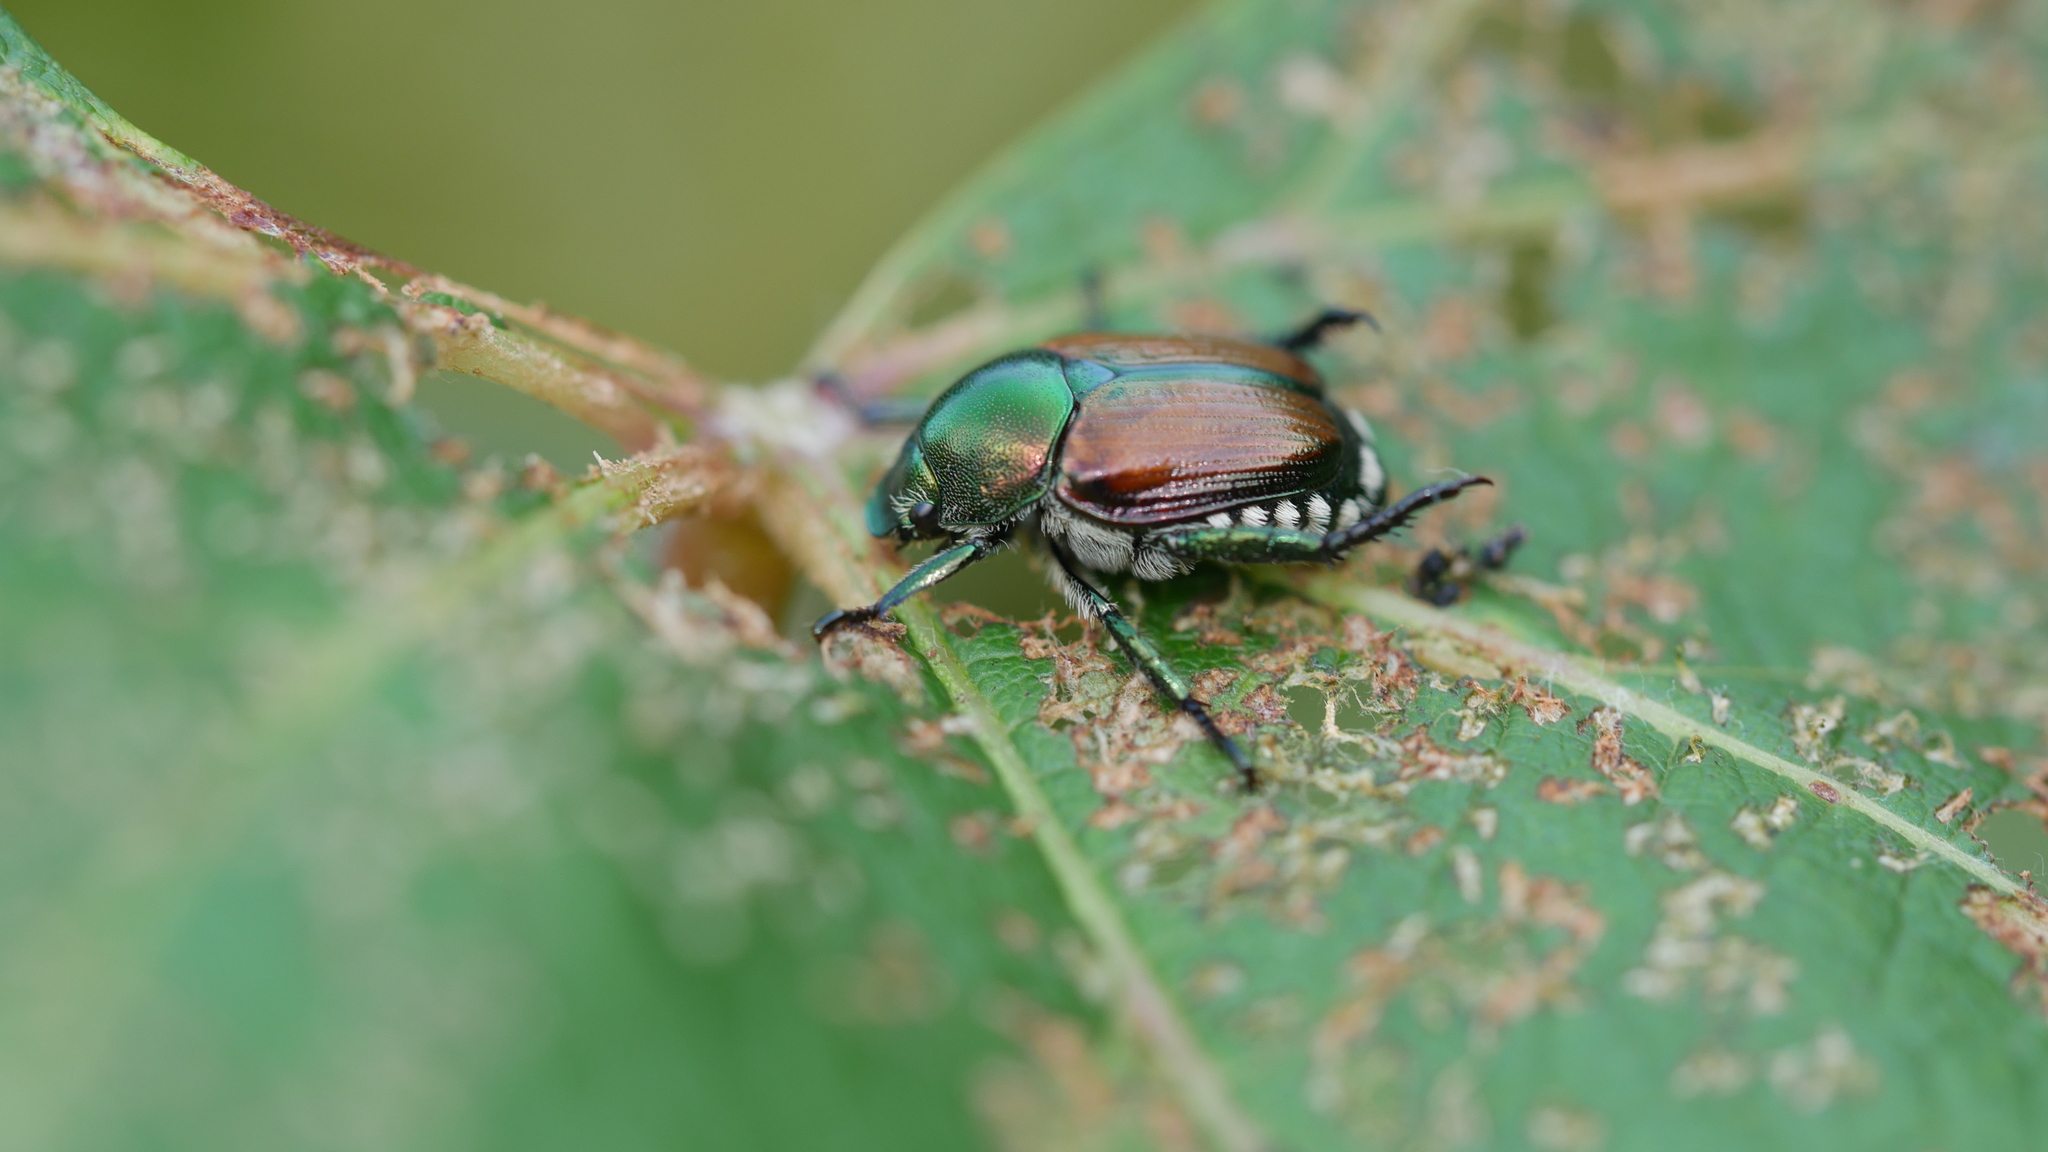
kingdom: Animalia
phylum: Arthropoda
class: Insecta
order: Coleoptera
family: Scarabaeidae
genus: Popillia
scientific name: Popillia japonica
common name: Japanese beetle
